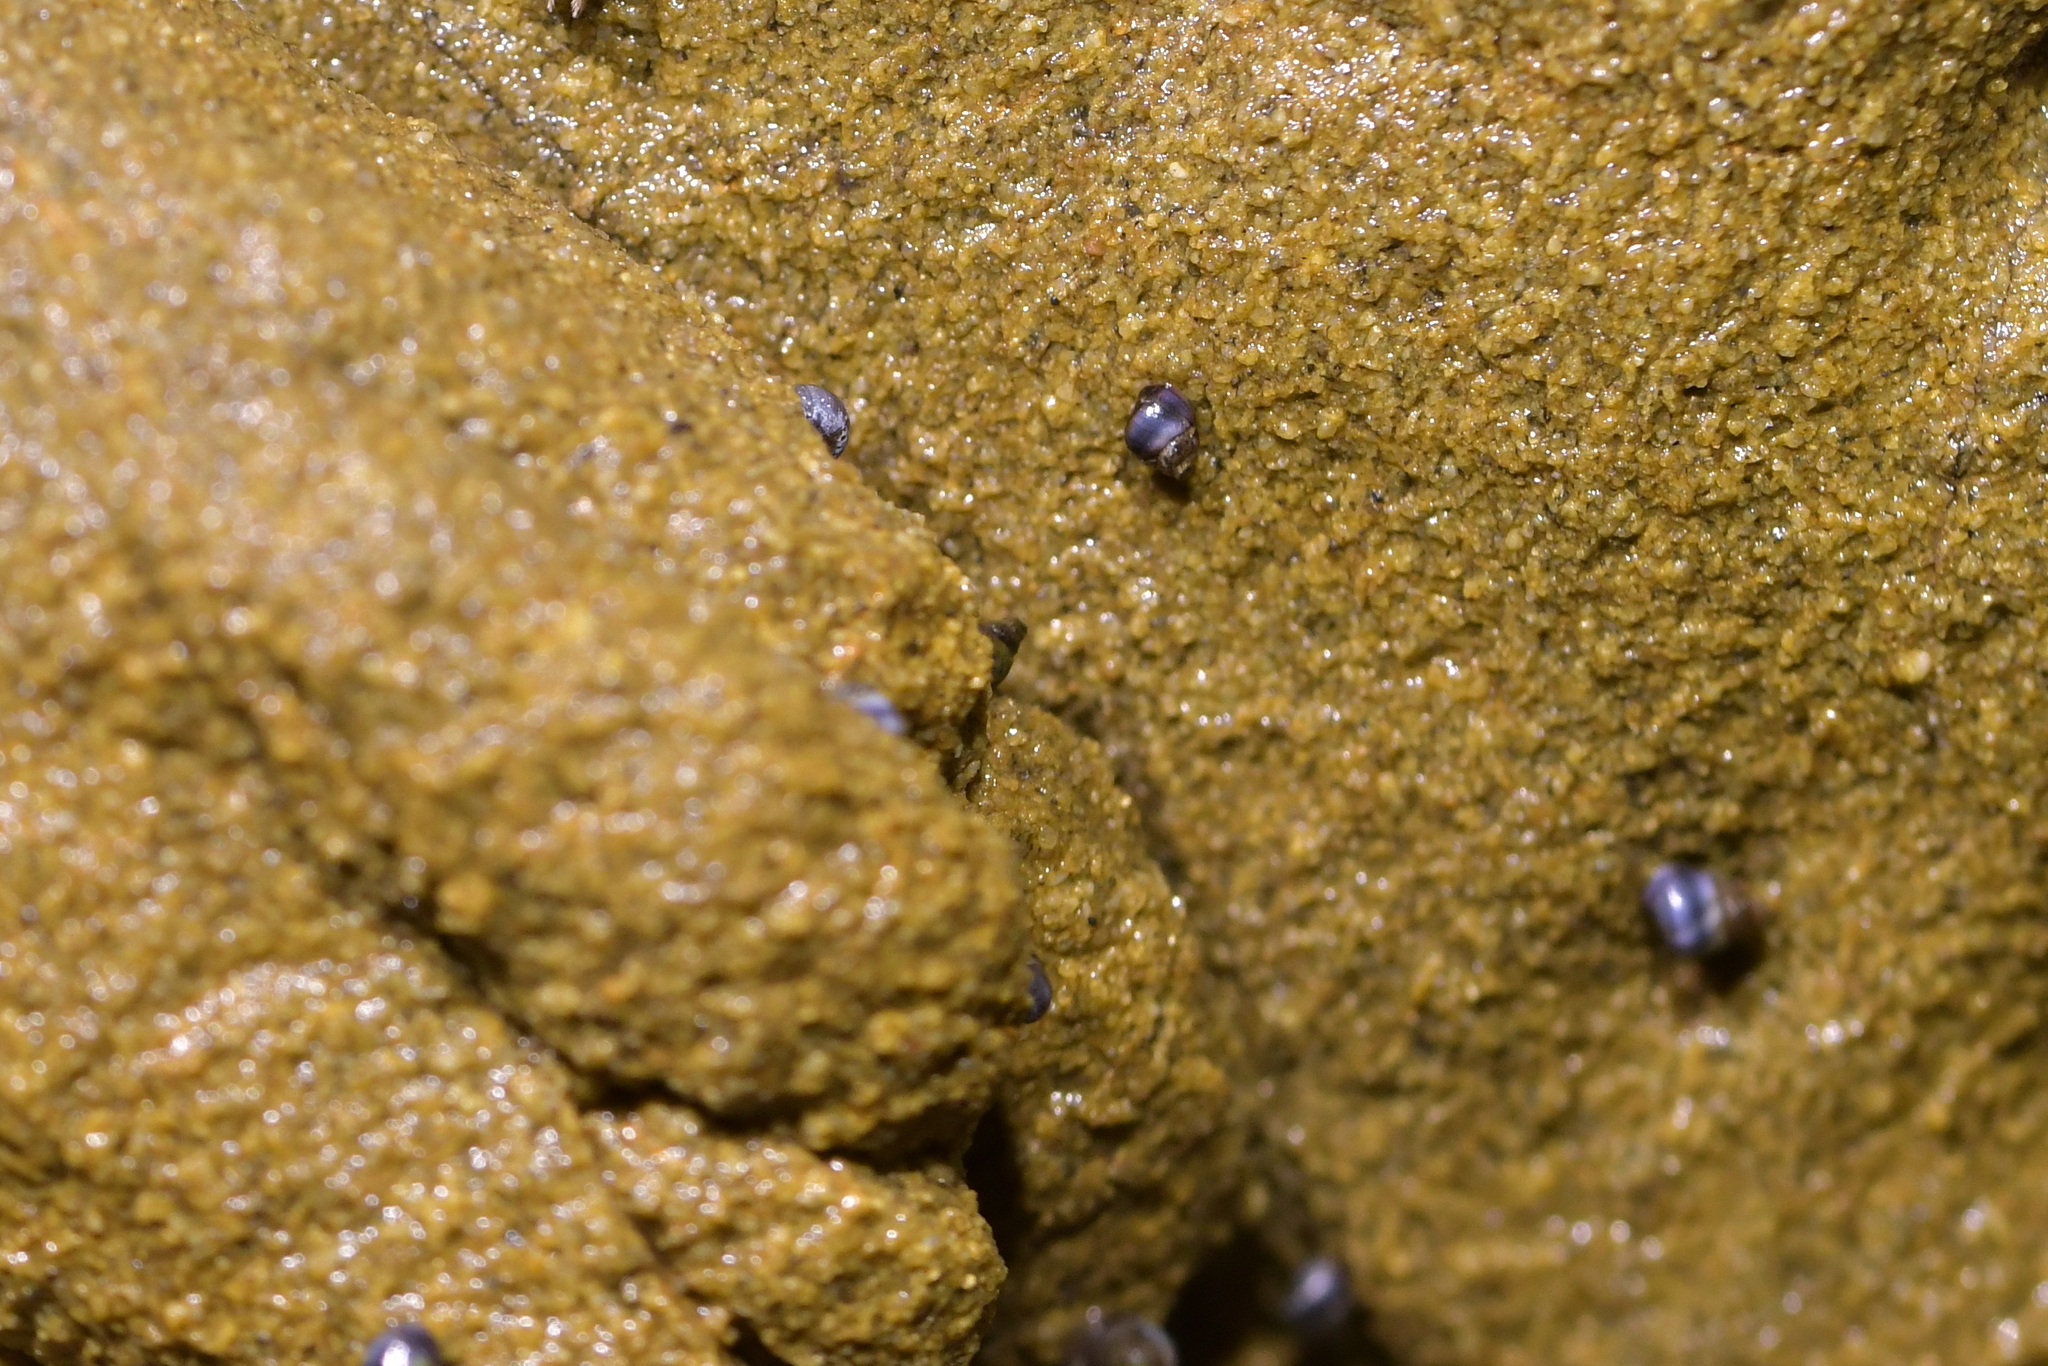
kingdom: Animalia
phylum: Mollusca
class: Gastropoda
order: Littorinimorpha
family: Littorinidae
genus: Austrolittorina
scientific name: Austrolittorina antipodum
